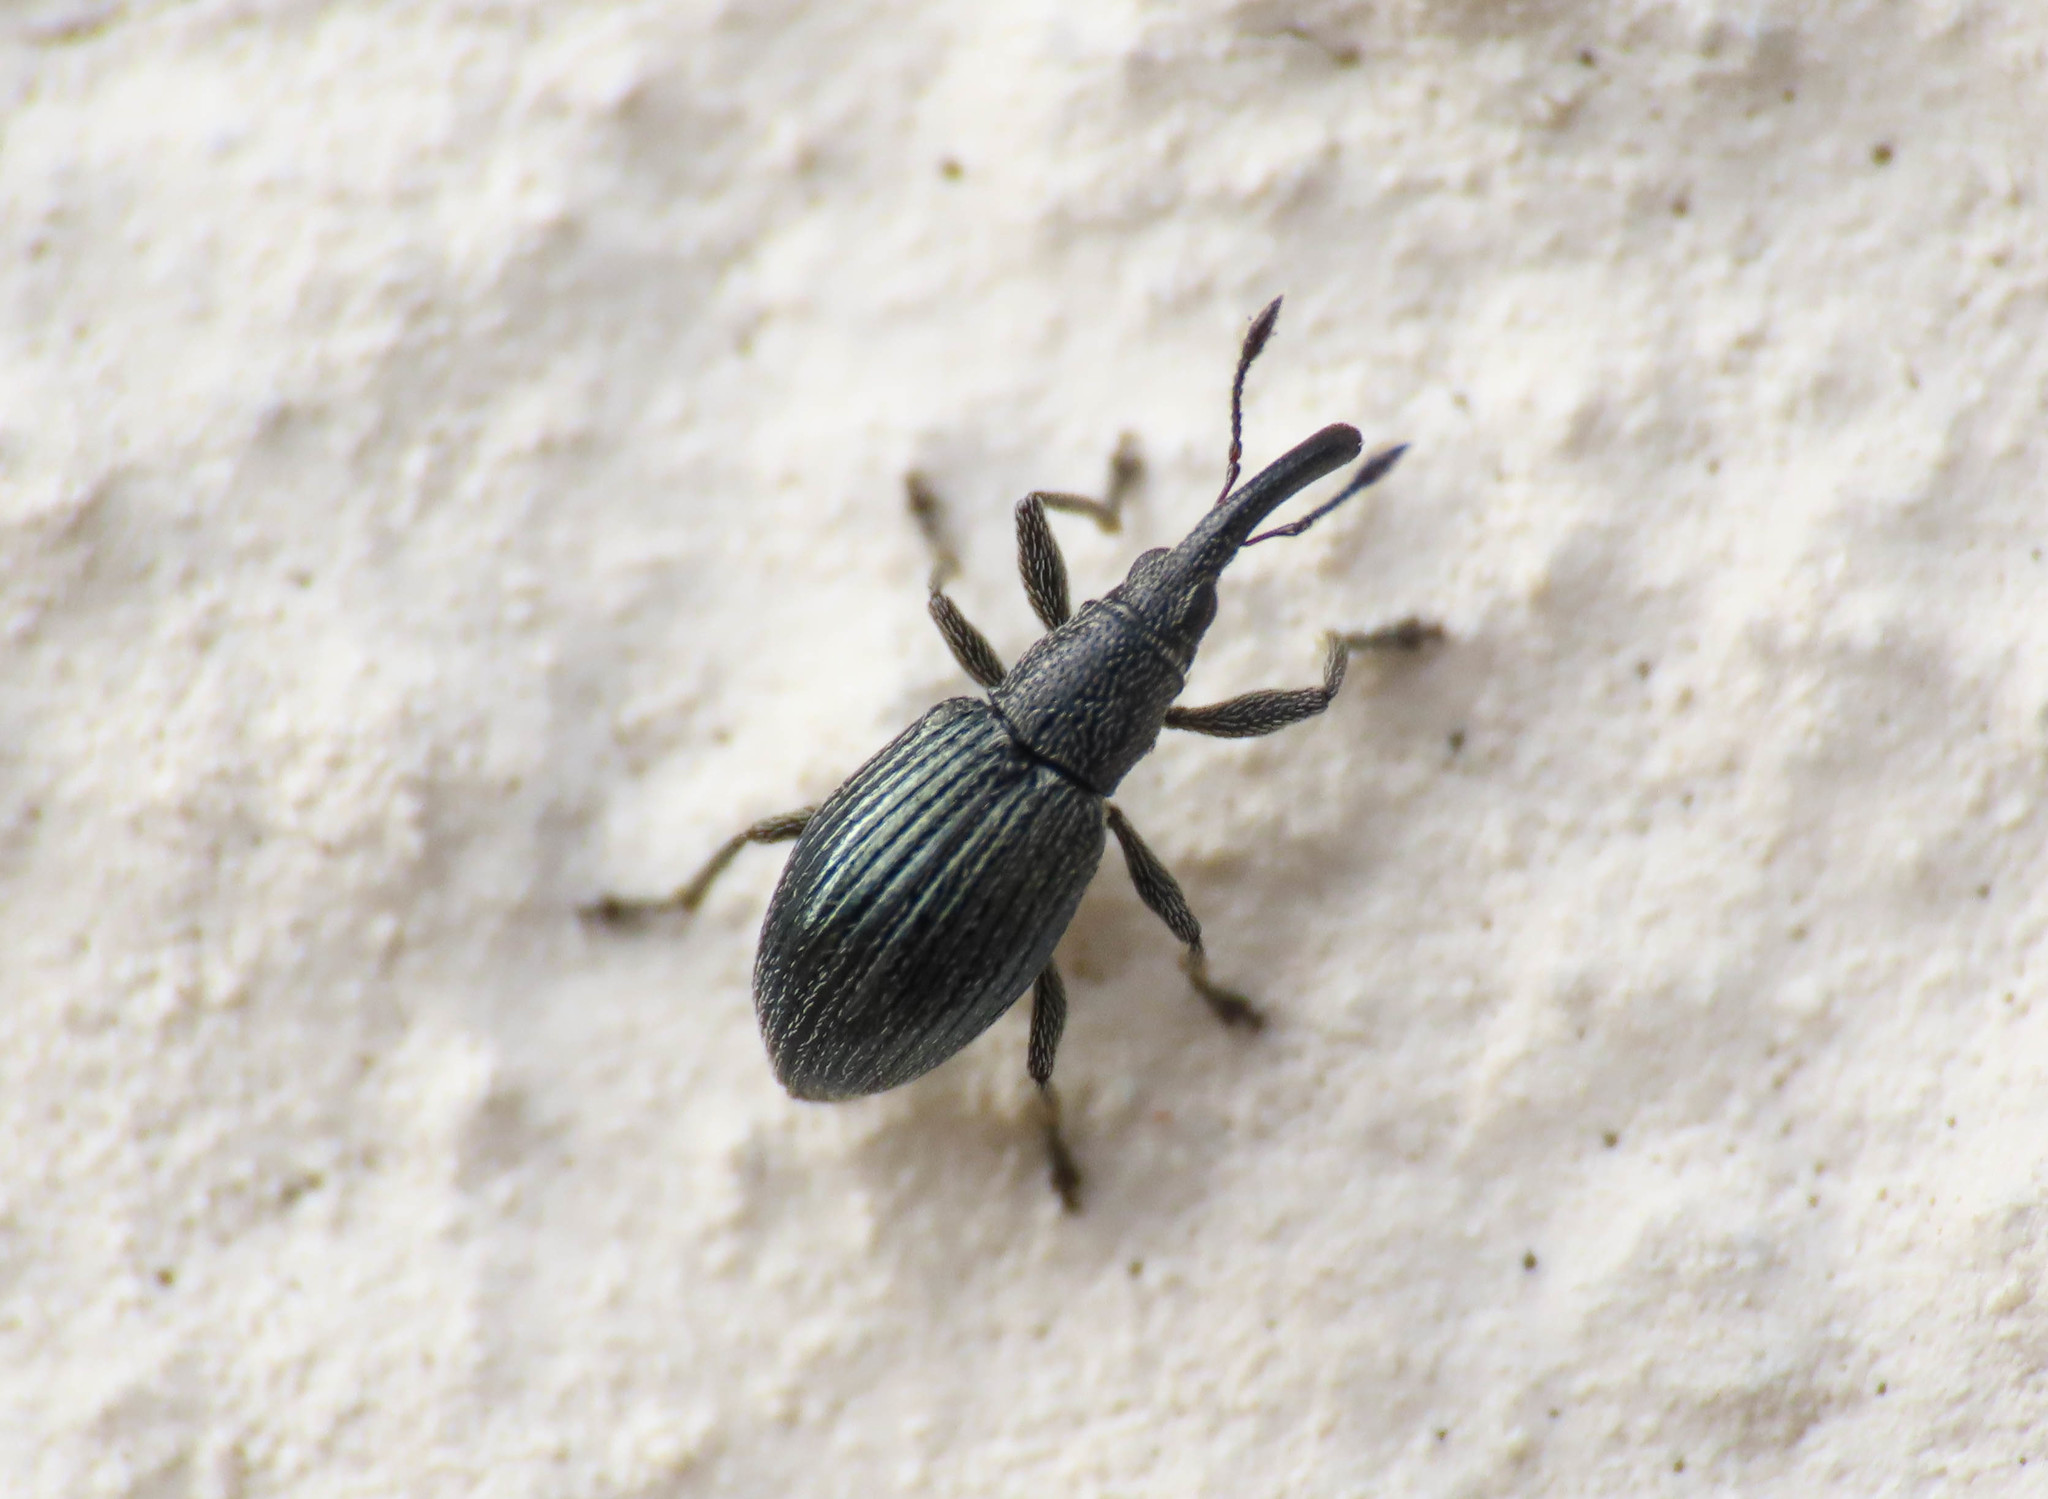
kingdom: Animalia
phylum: Arthropoda
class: Insecta
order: Coleoptera
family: Apionidae
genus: Aspidapion
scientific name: Aspidapion radiolus
